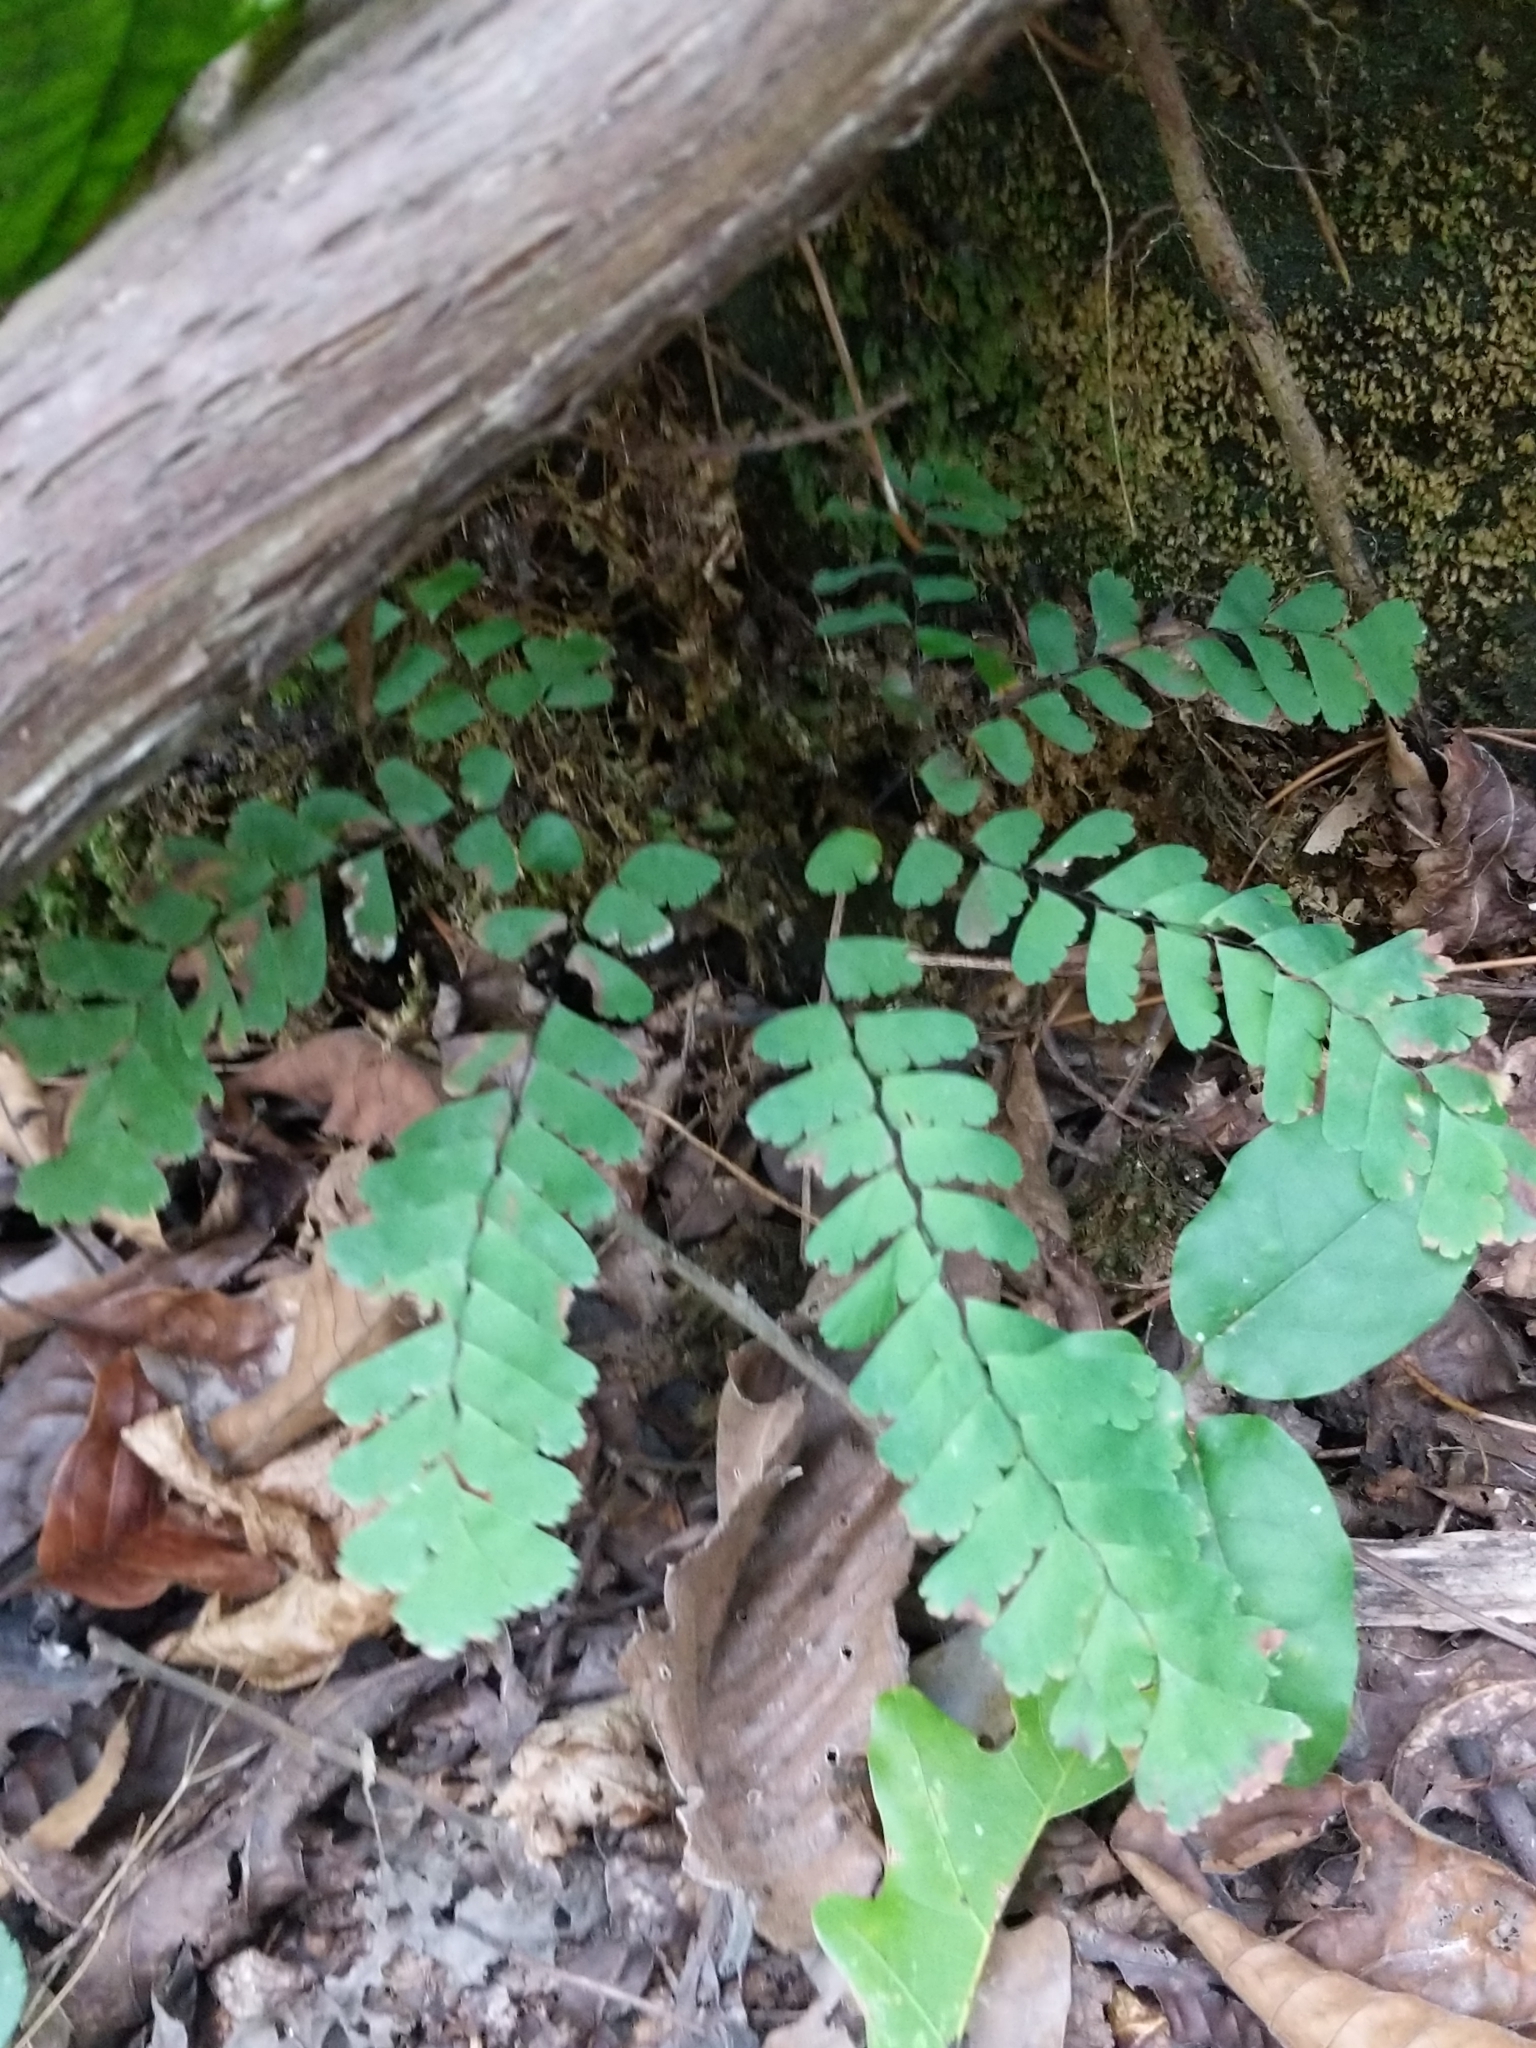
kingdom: Plantae
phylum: Tracheophyta
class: Polypodiopsida
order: Polypodiales
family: Pteridaceae
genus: Adiantum
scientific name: Adiantum pedatum
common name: Five-finger fern
